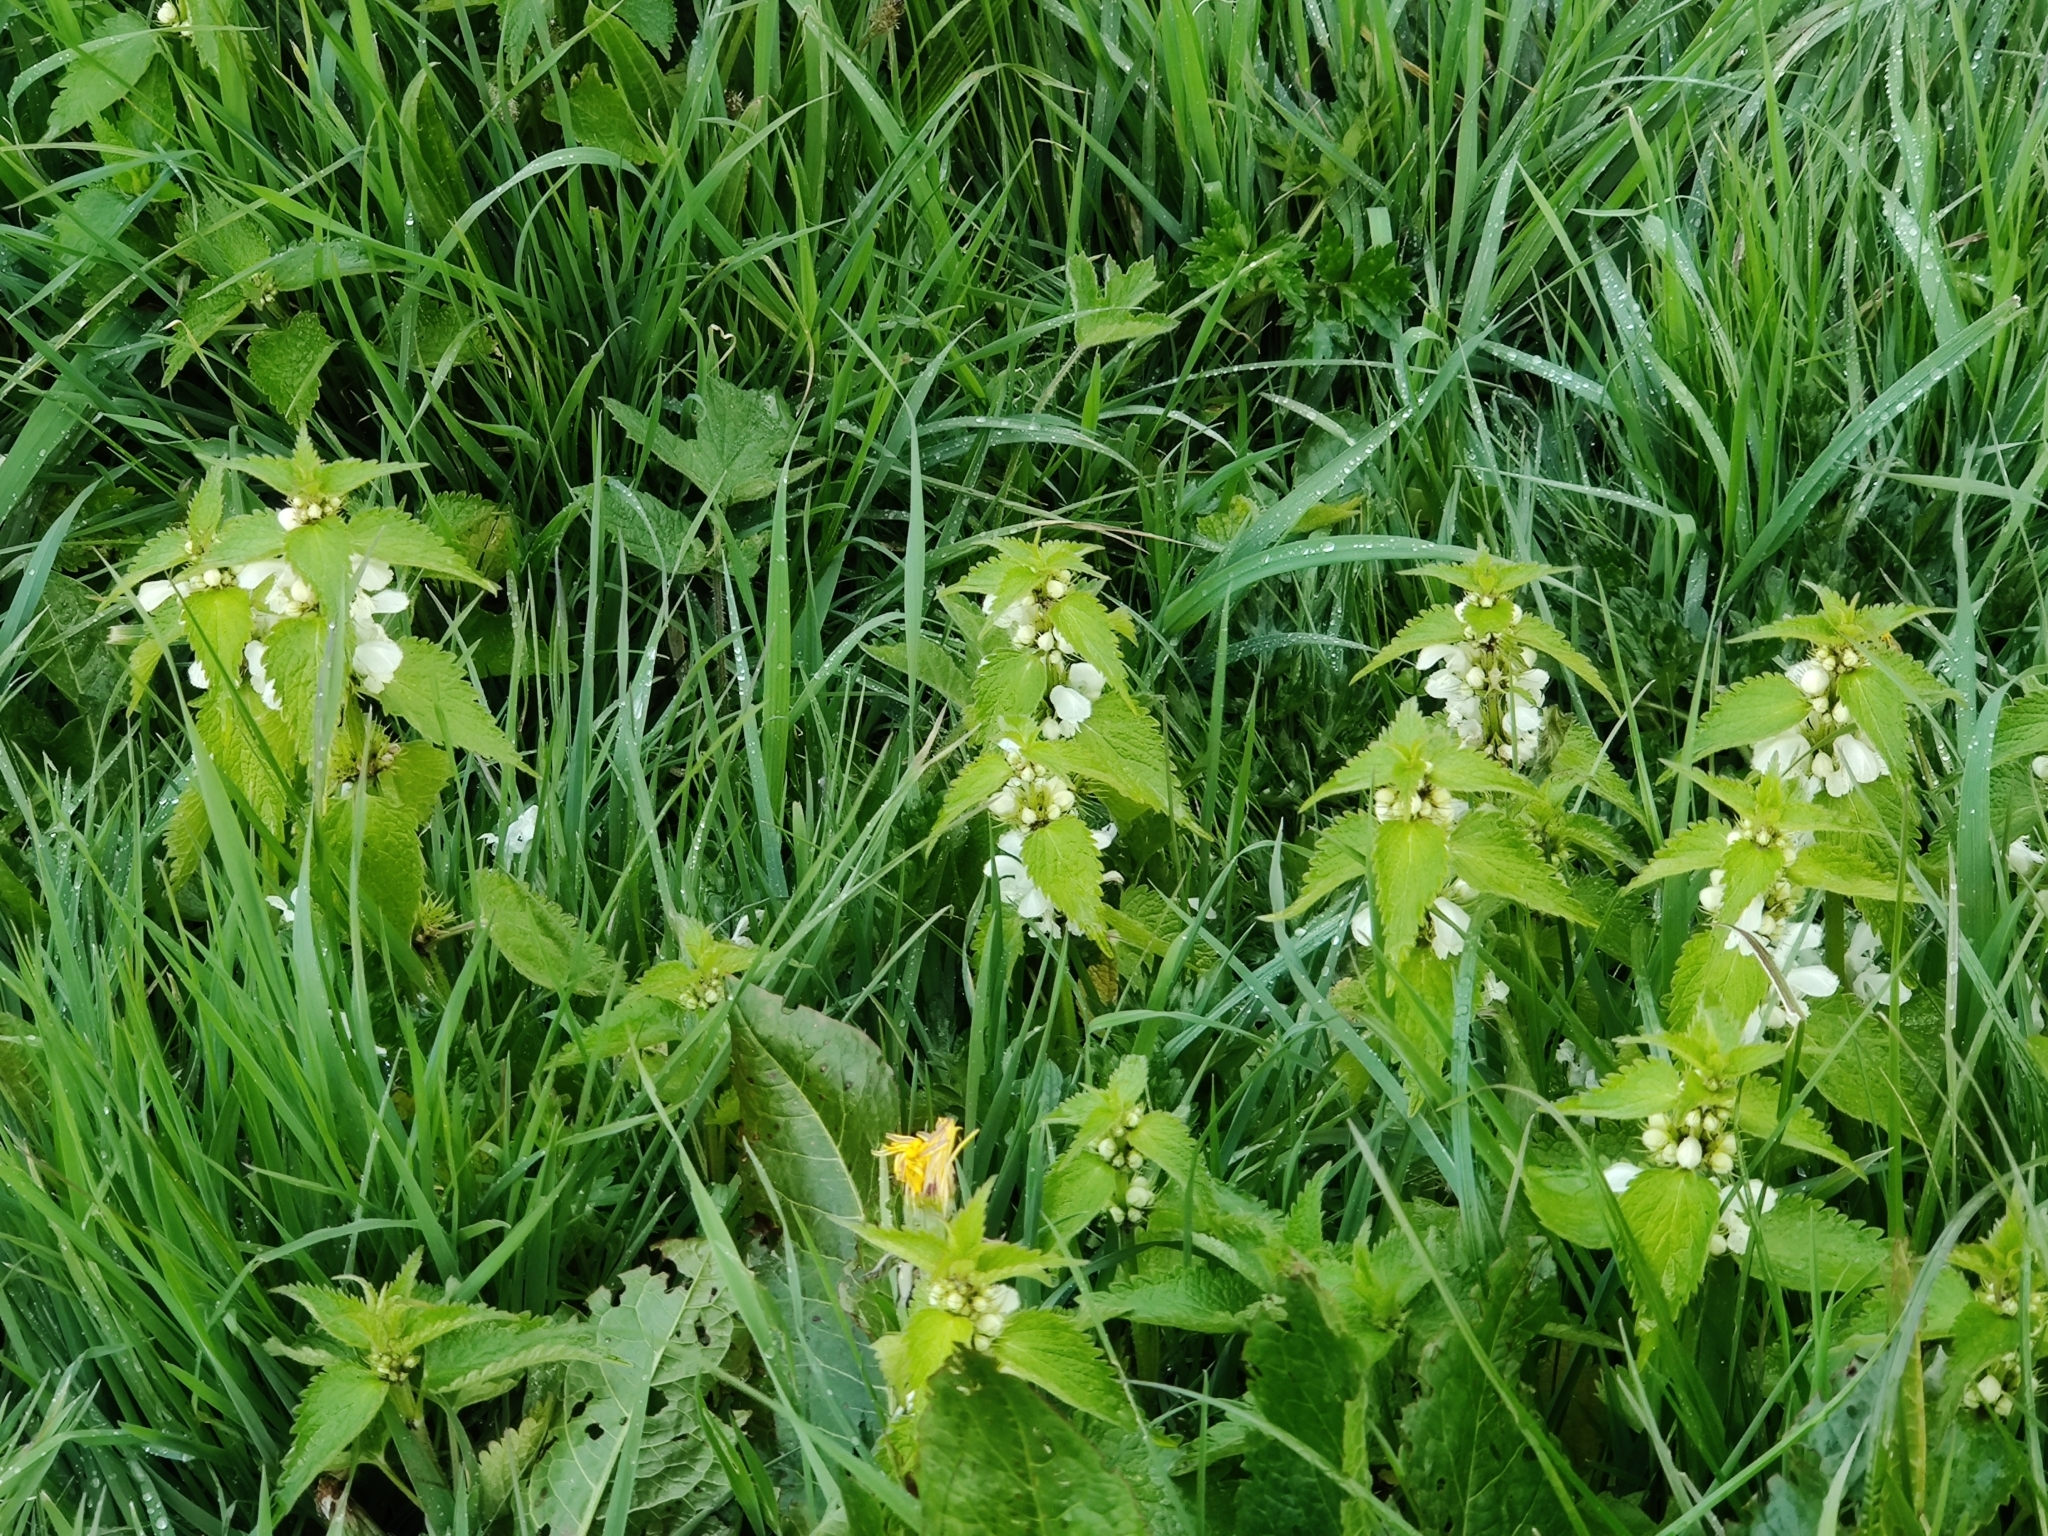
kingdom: Plantae
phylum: Tracheophyta
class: Magnoliopsida
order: Lamiales
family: Lamiaceae
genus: Lamium
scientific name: Lamium album
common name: White dead-nettle
